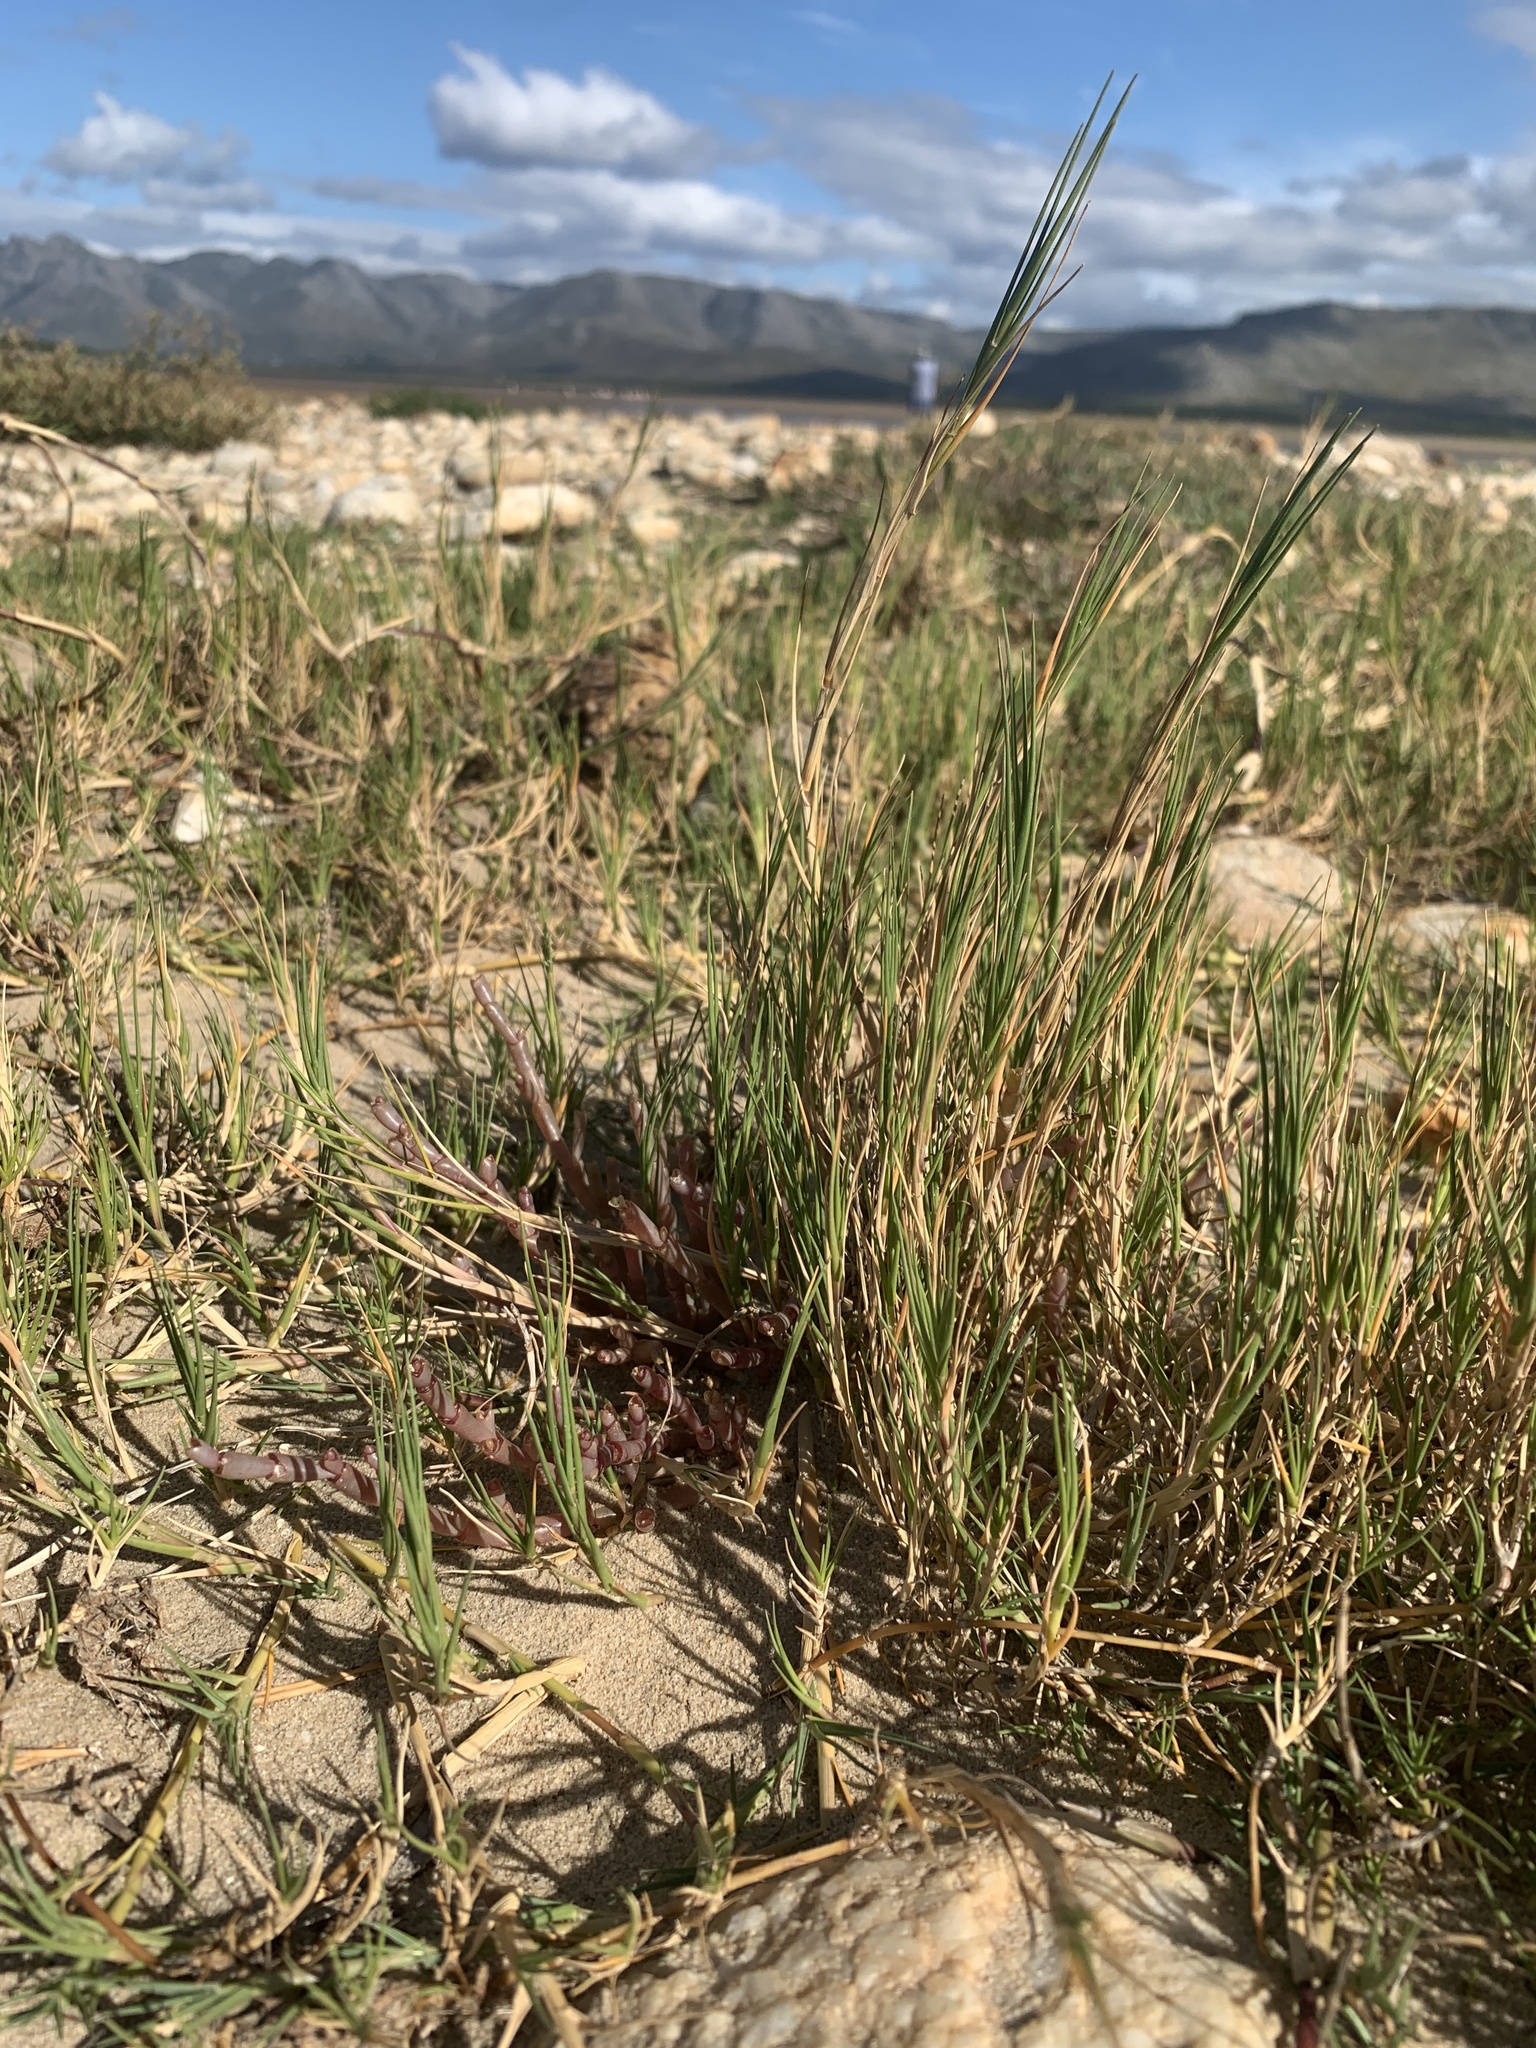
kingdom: Plantae
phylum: Tracheophyta
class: Liliopsida
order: Poales
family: Poaceae
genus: Sporobolus
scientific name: Sporobolus virginicus
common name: Beach dropseed
